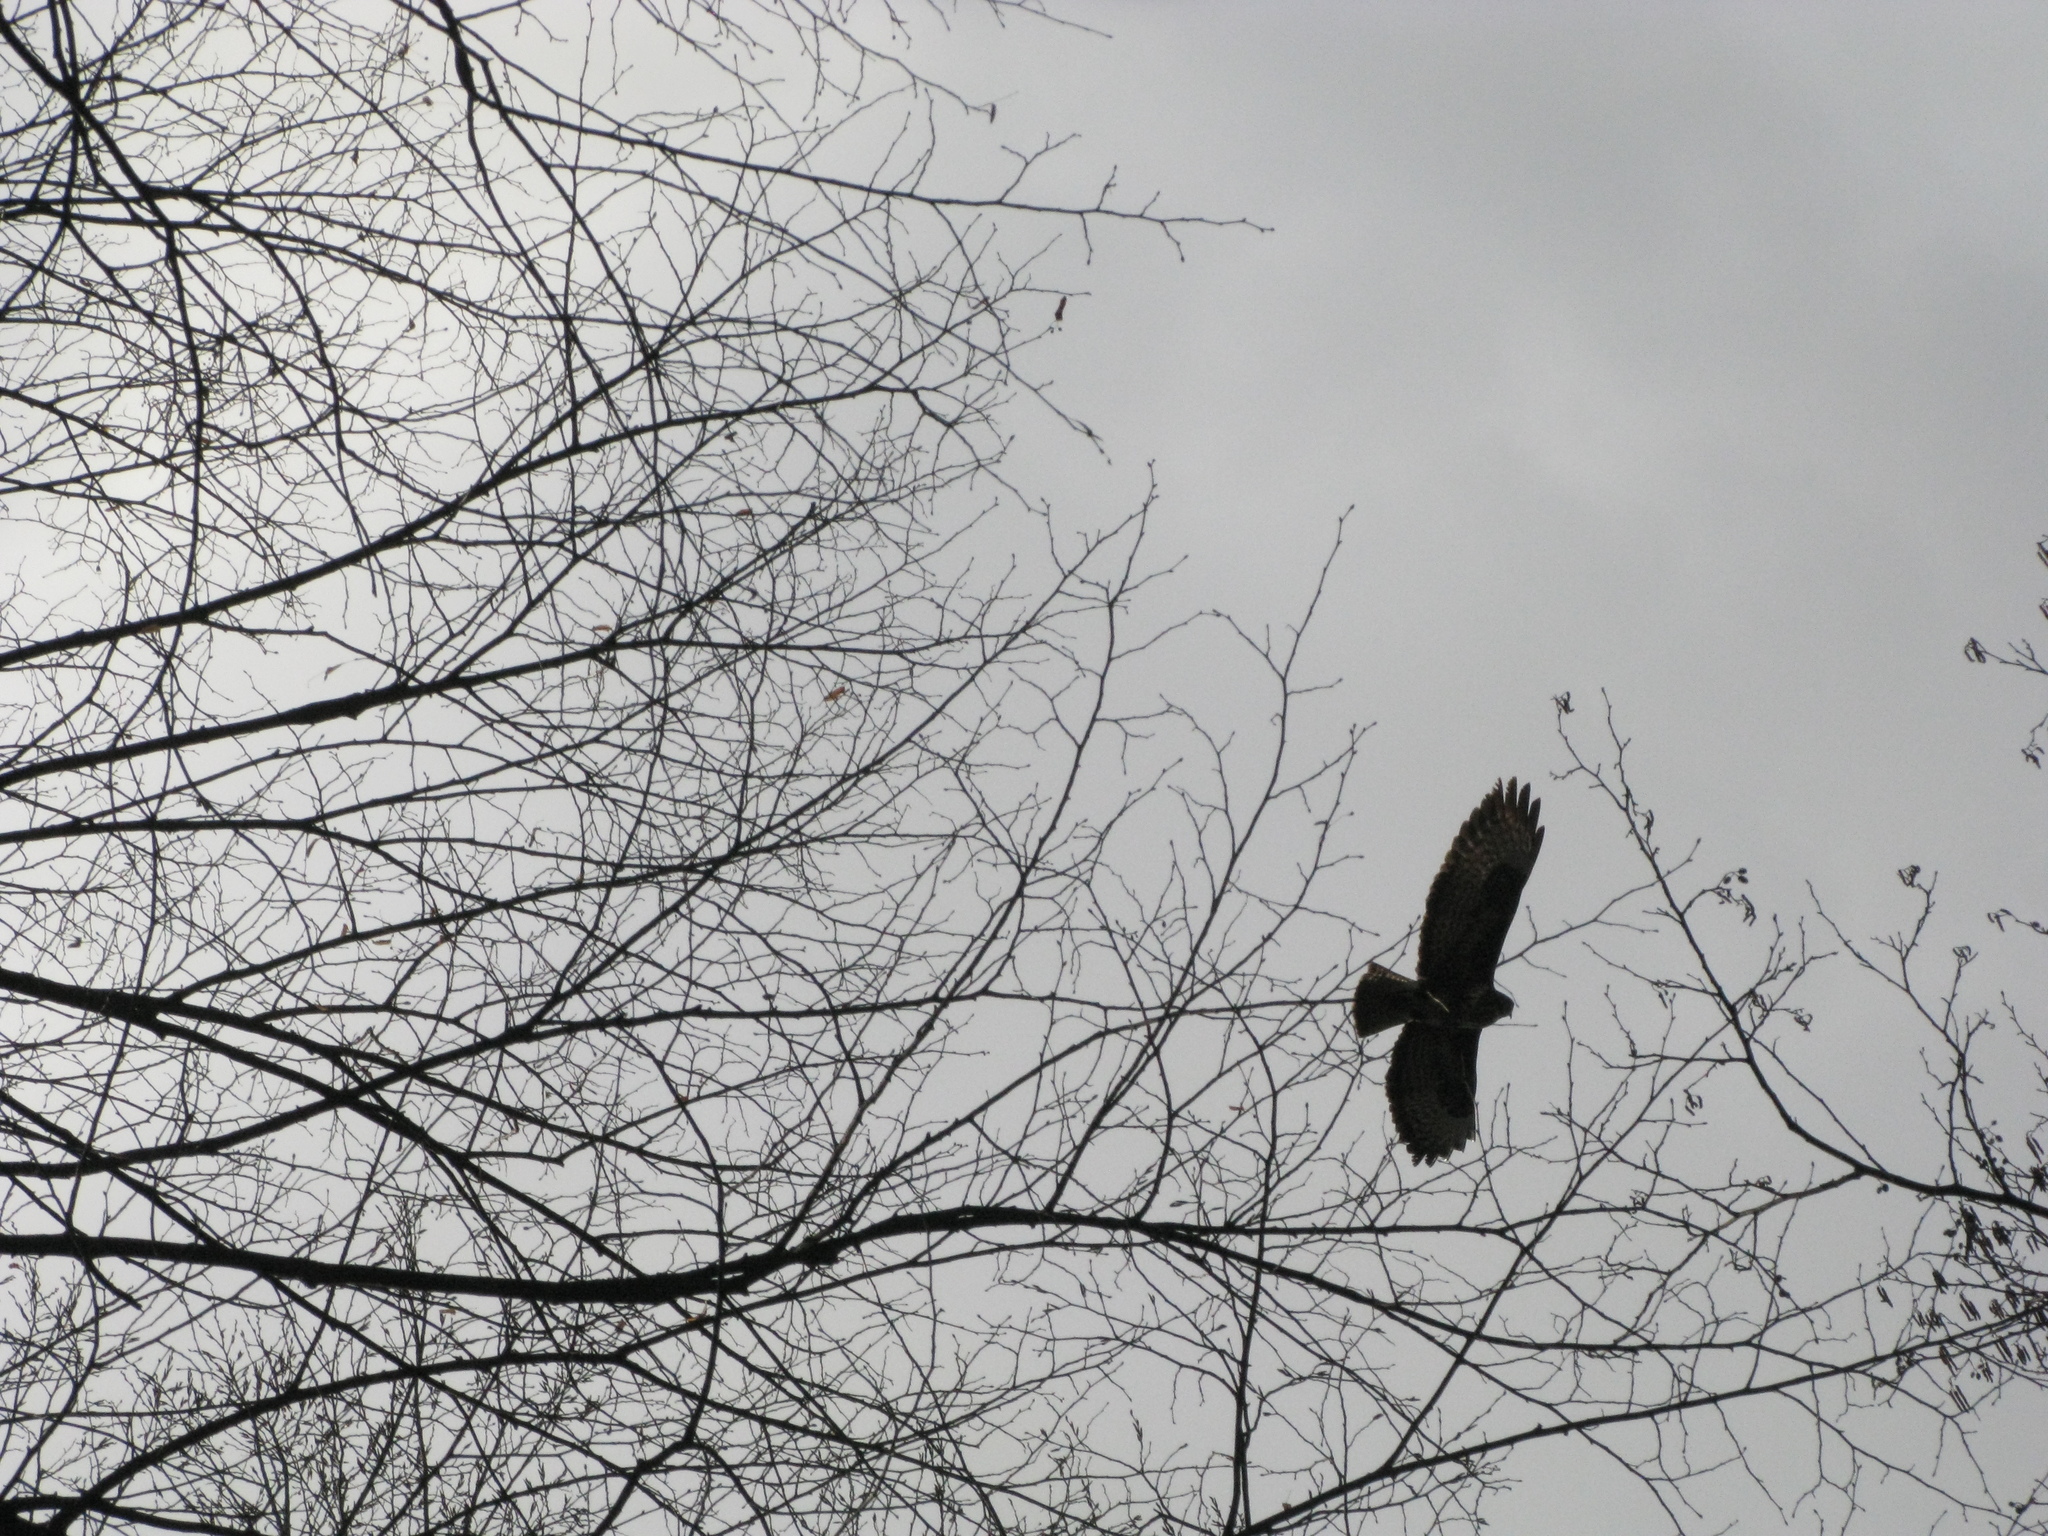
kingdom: Animalia
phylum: Chordata
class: Aves
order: Accipitriformes
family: Accipitridae
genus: Buteo
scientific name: Buteo buteo
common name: Common buzzard
